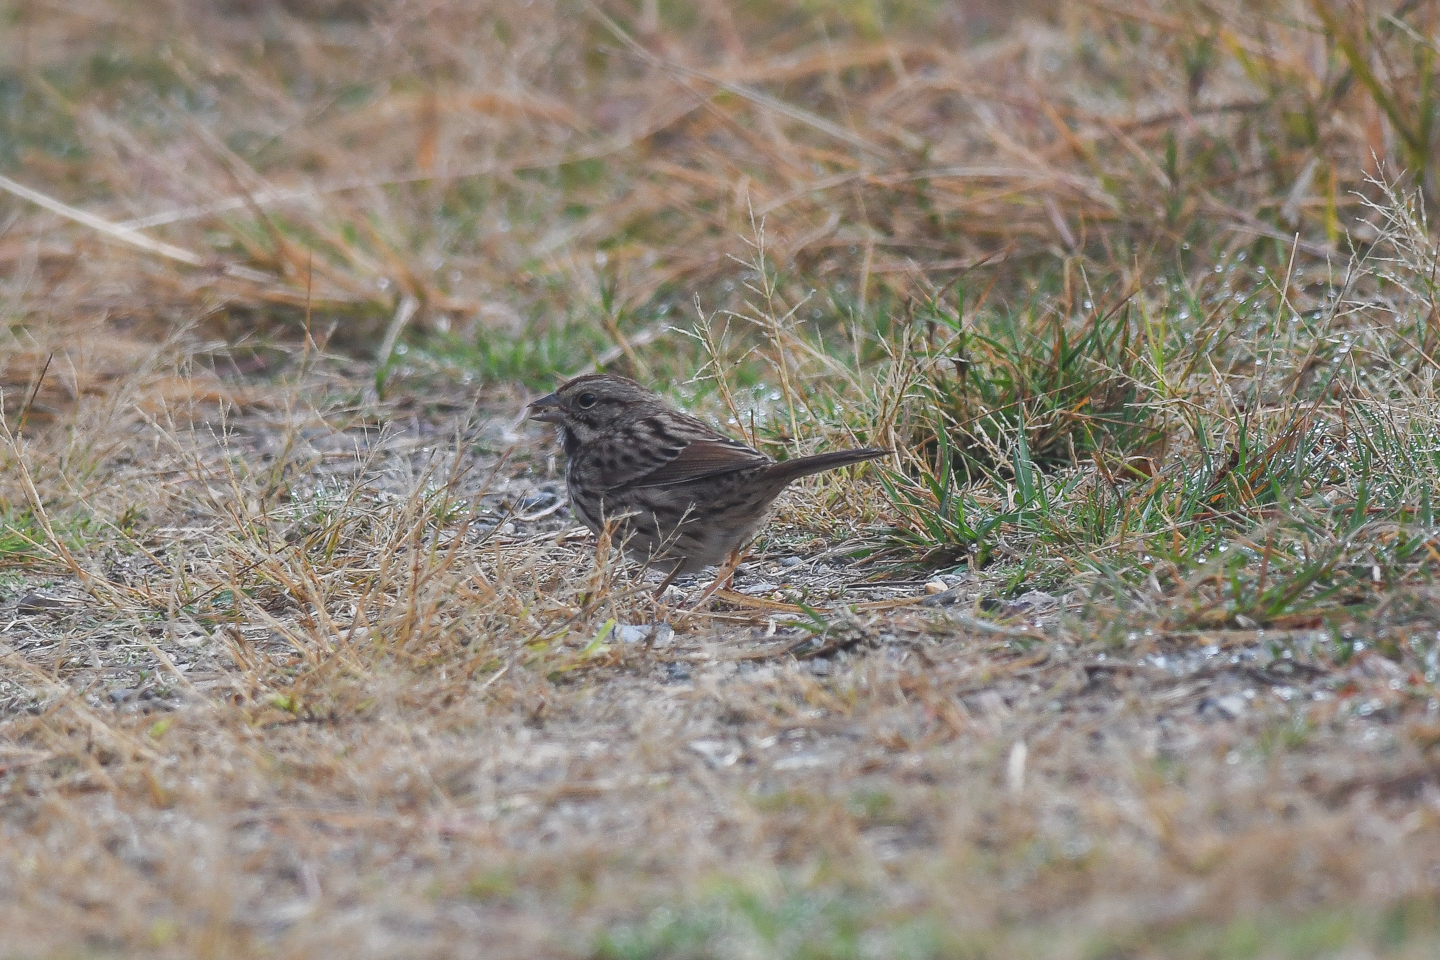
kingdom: Animalia
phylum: Chordata
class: Aves
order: Passeriformes
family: Passerellidae
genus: Melospiza
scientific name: Melospiza melodia
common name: Song sparrow
